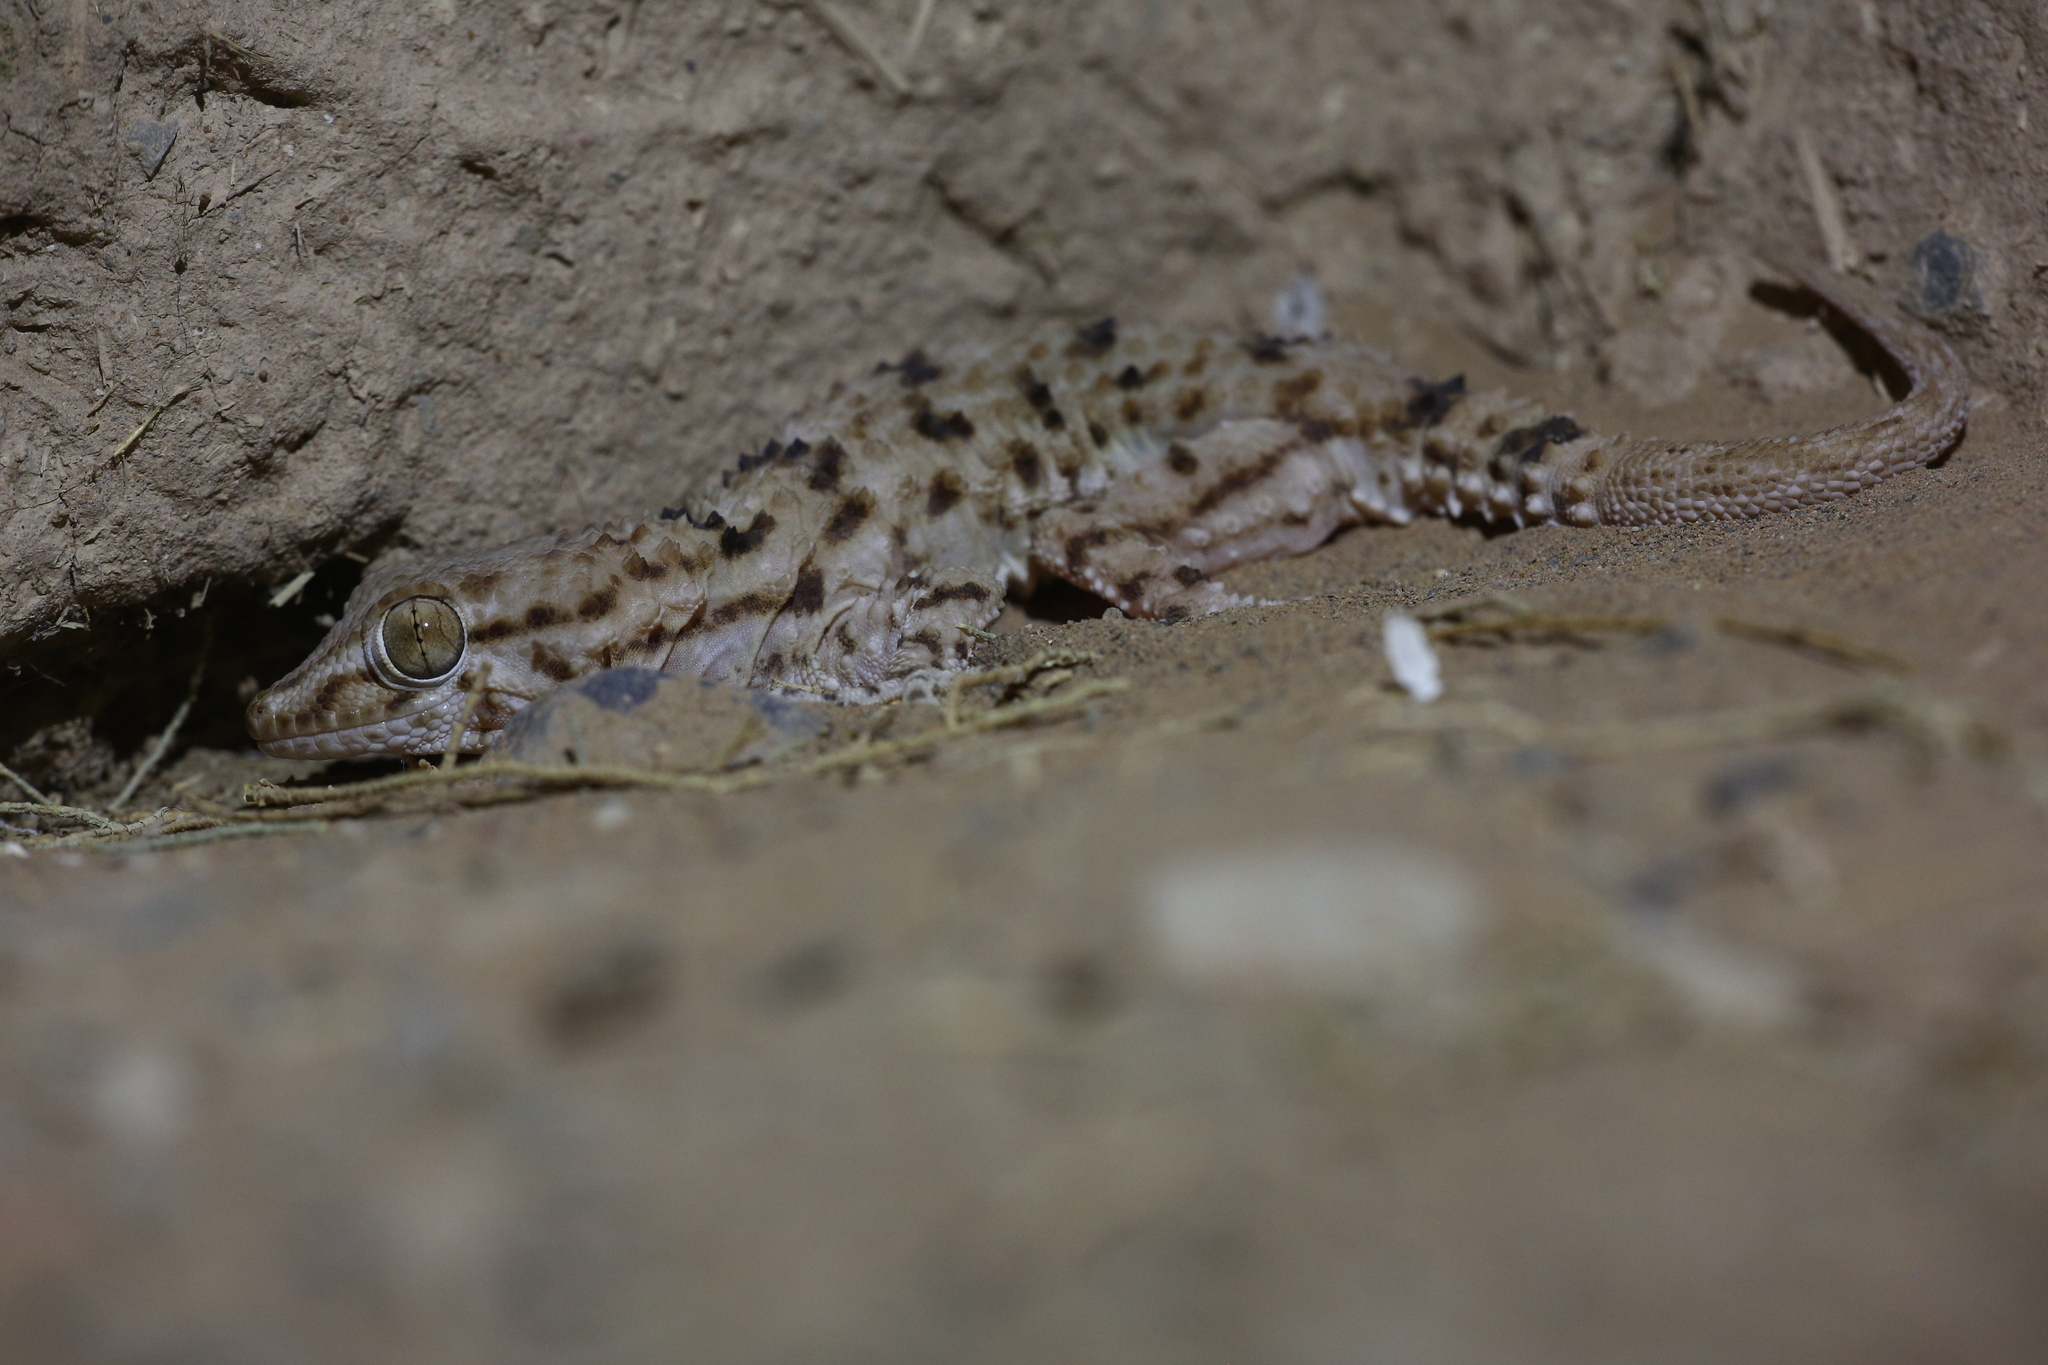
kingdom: Animalia
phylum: Chordata
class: Squamata
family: Phyllodactylidae
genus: Tarentola
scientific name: Tarentola deserti
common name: Desert wall gecko
